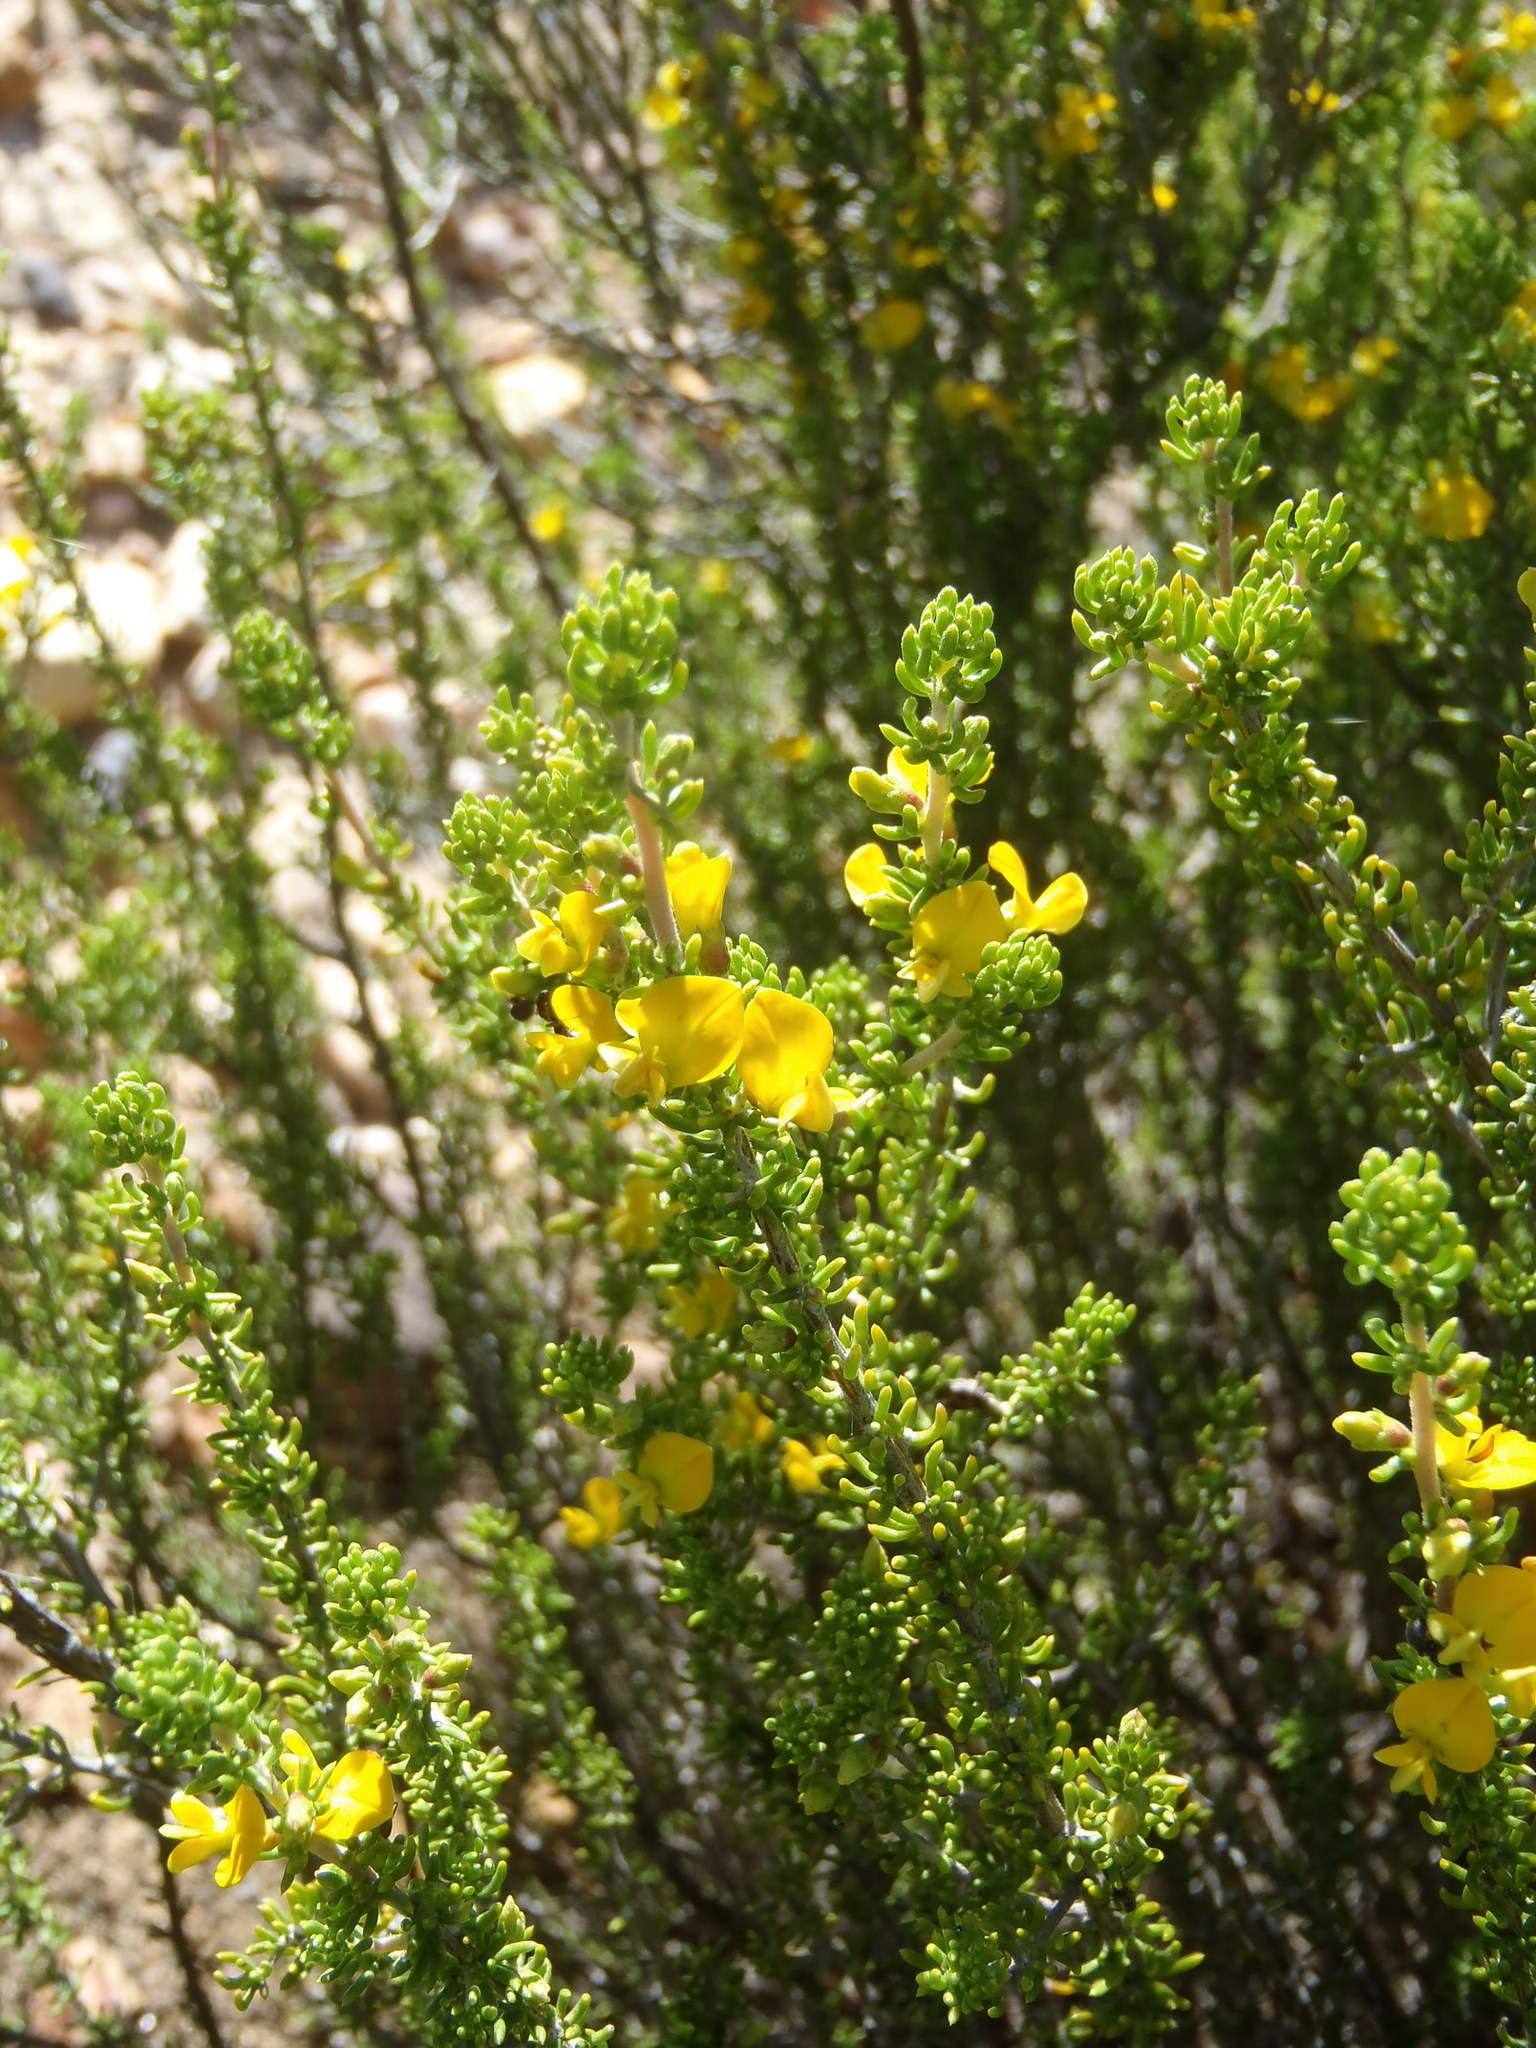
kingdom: Plantae
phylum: Tracheophyta
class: Magnoliopsida
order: Fabales
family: Fabaceae
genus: Aspalathus
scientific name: Aspalathus subtingens
